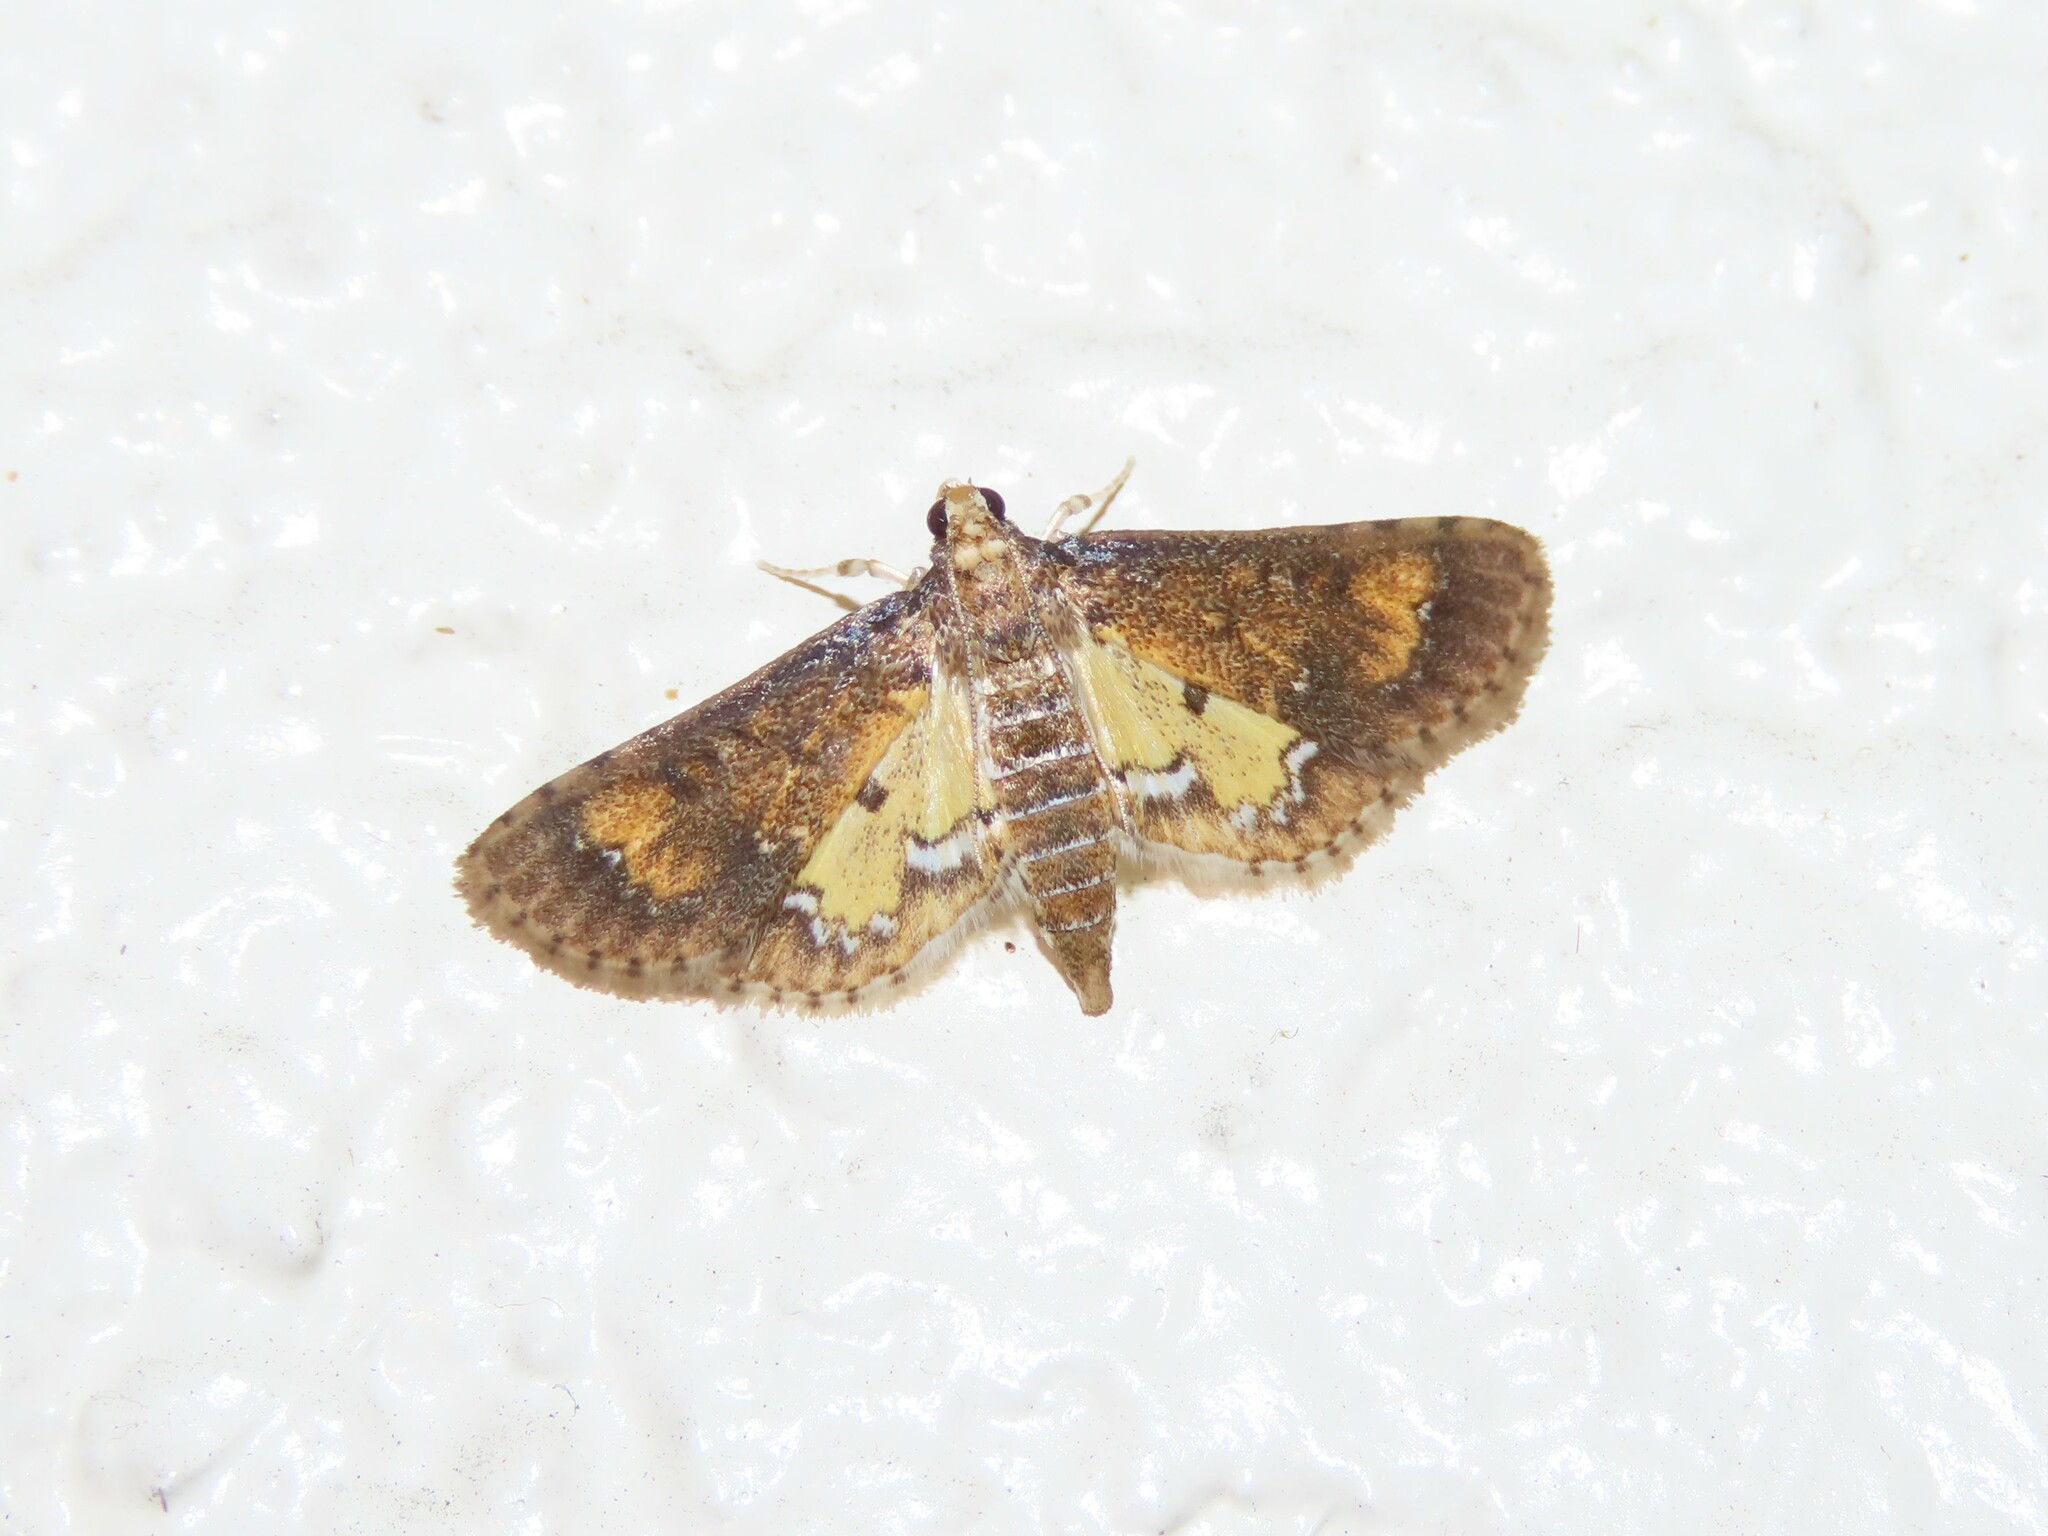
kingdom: Animalia
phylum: Arthropoda
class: Insecta
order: Lepidoptera
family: Crambidae
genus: Niphograpta
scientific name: Niphograpta albiguttalis
